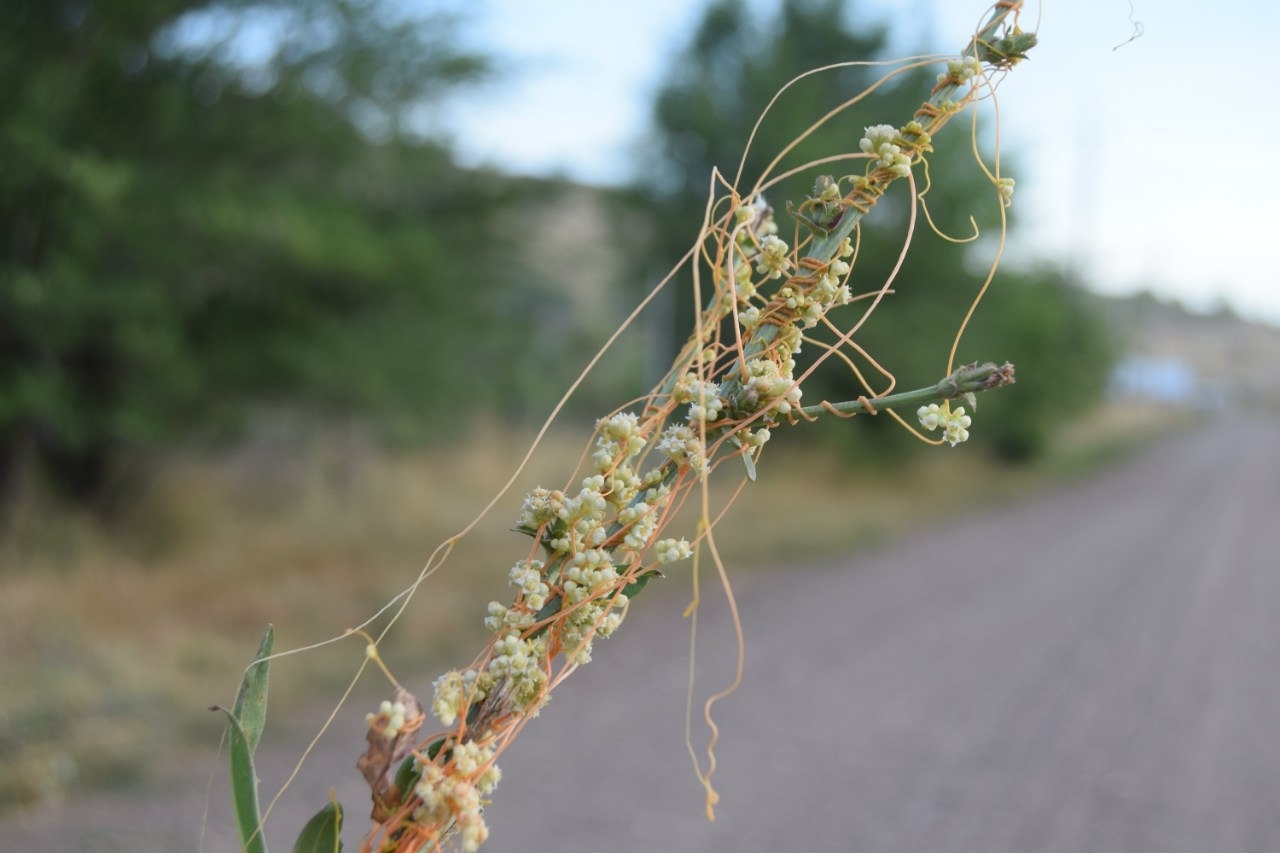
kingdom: Plantae
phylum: Tracheophyta
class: Magnoliopsida
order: Solanales
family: Convolvulaceae
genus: Cuscuta
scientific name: Cuscuta campestris
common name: Yellow dodder
